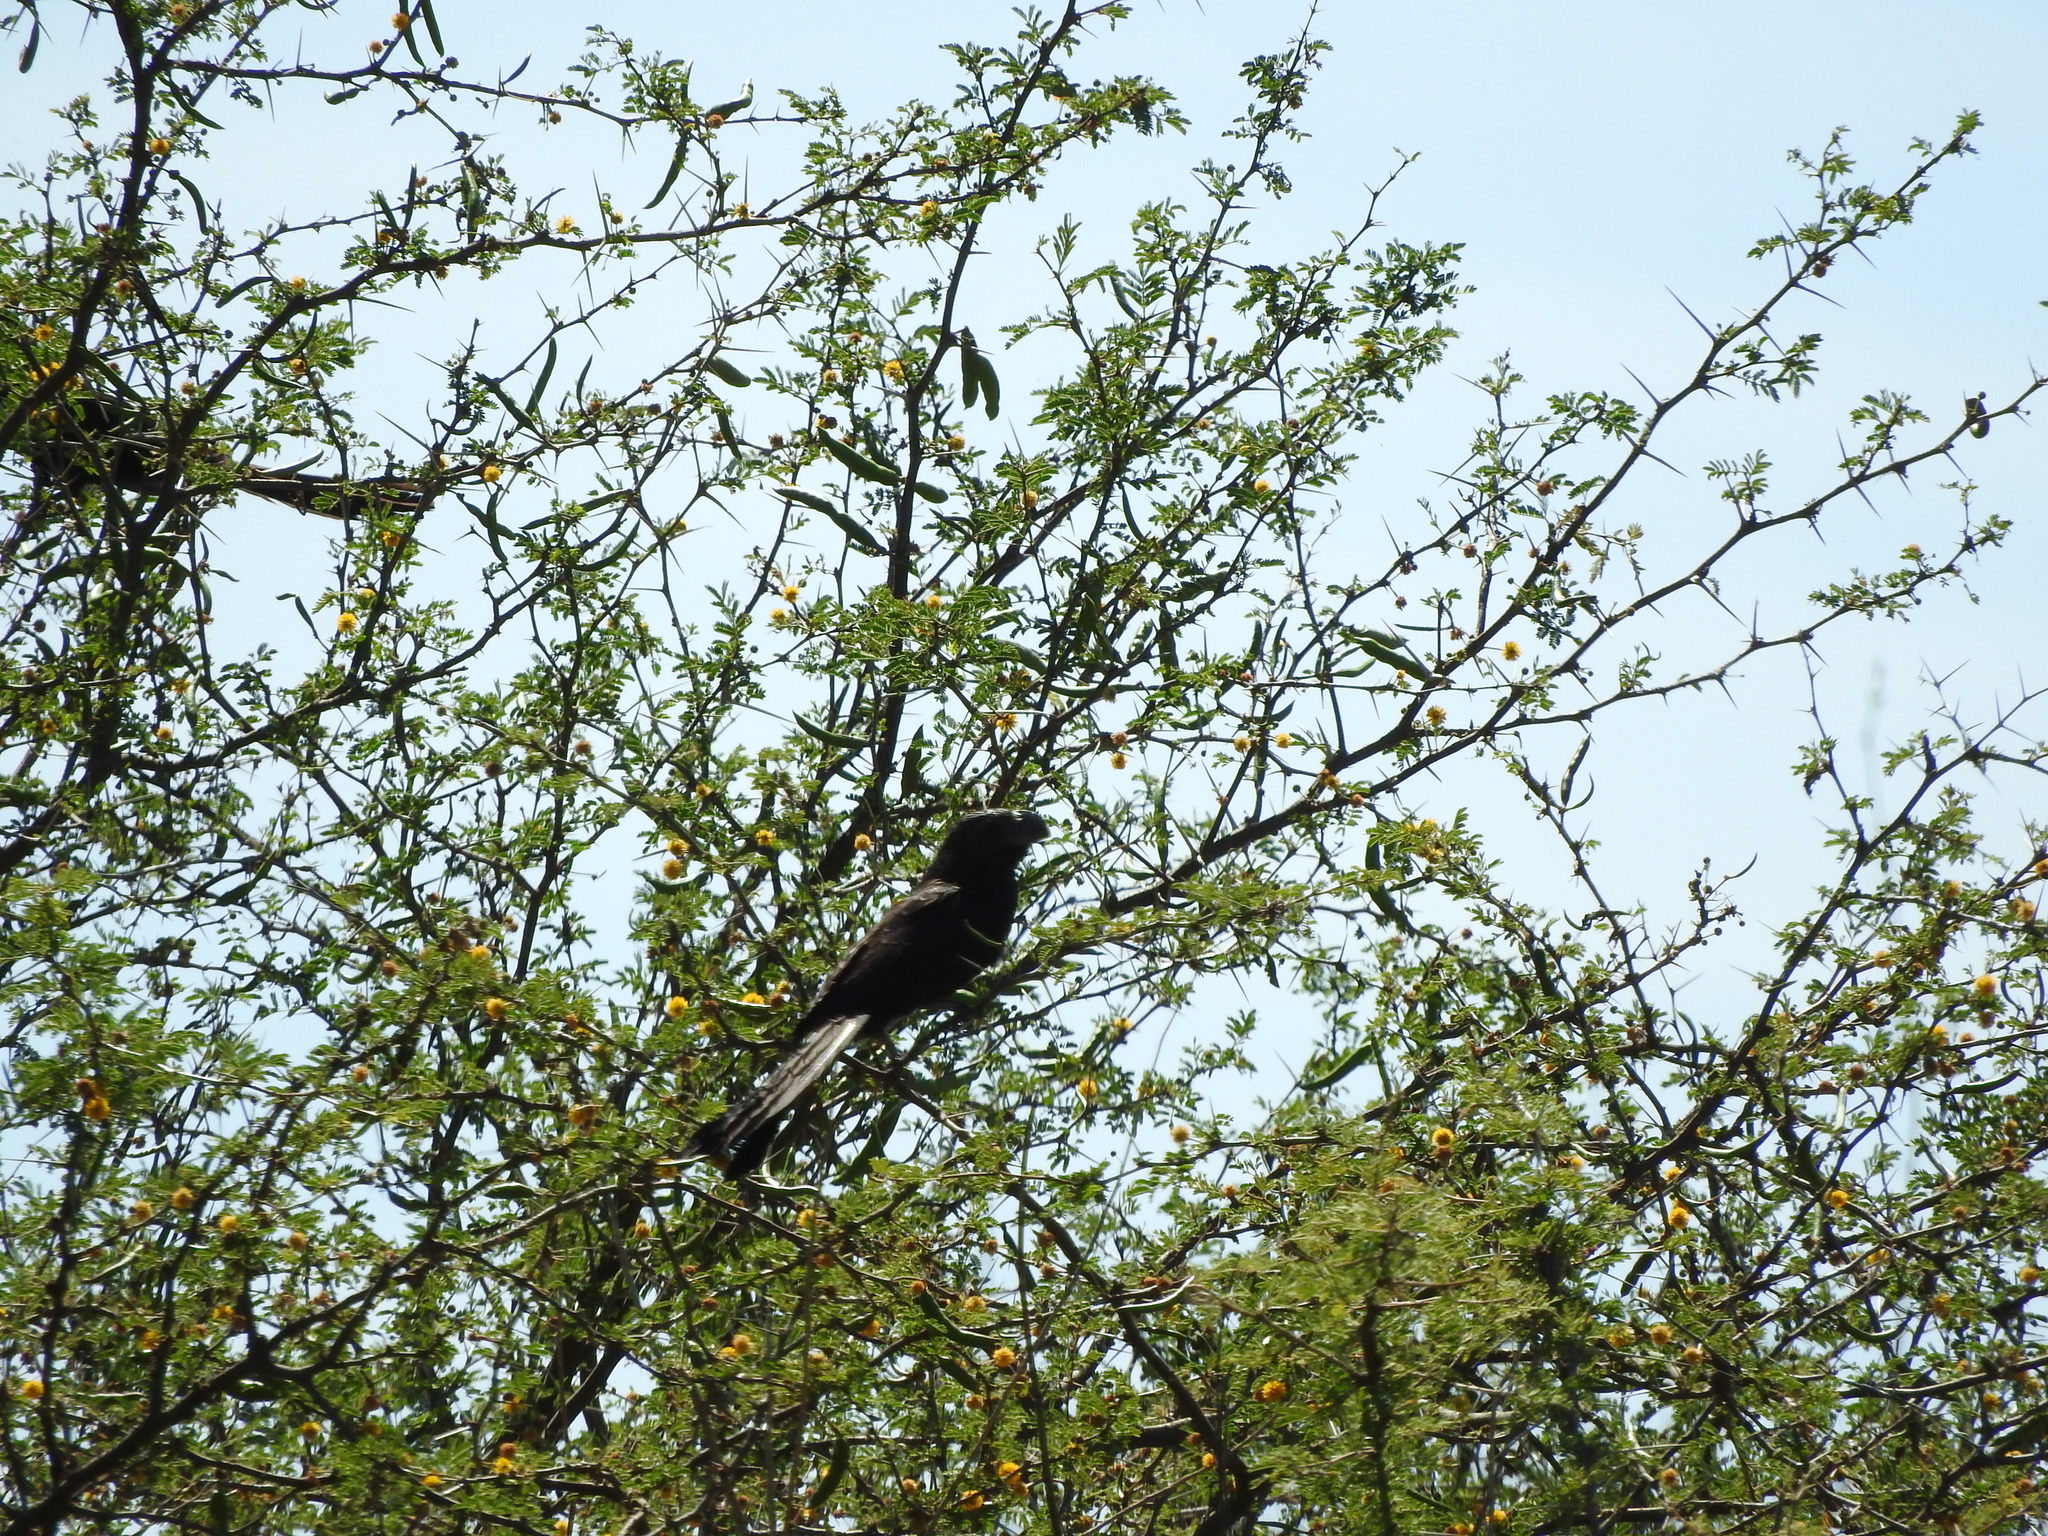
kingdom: Animalia
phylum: Chordata
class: Aves
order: Cuculiformes
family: Cuculidae
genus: Crotophaga
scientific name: Crotophaga sulcirostris
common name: Groove-billed ani
